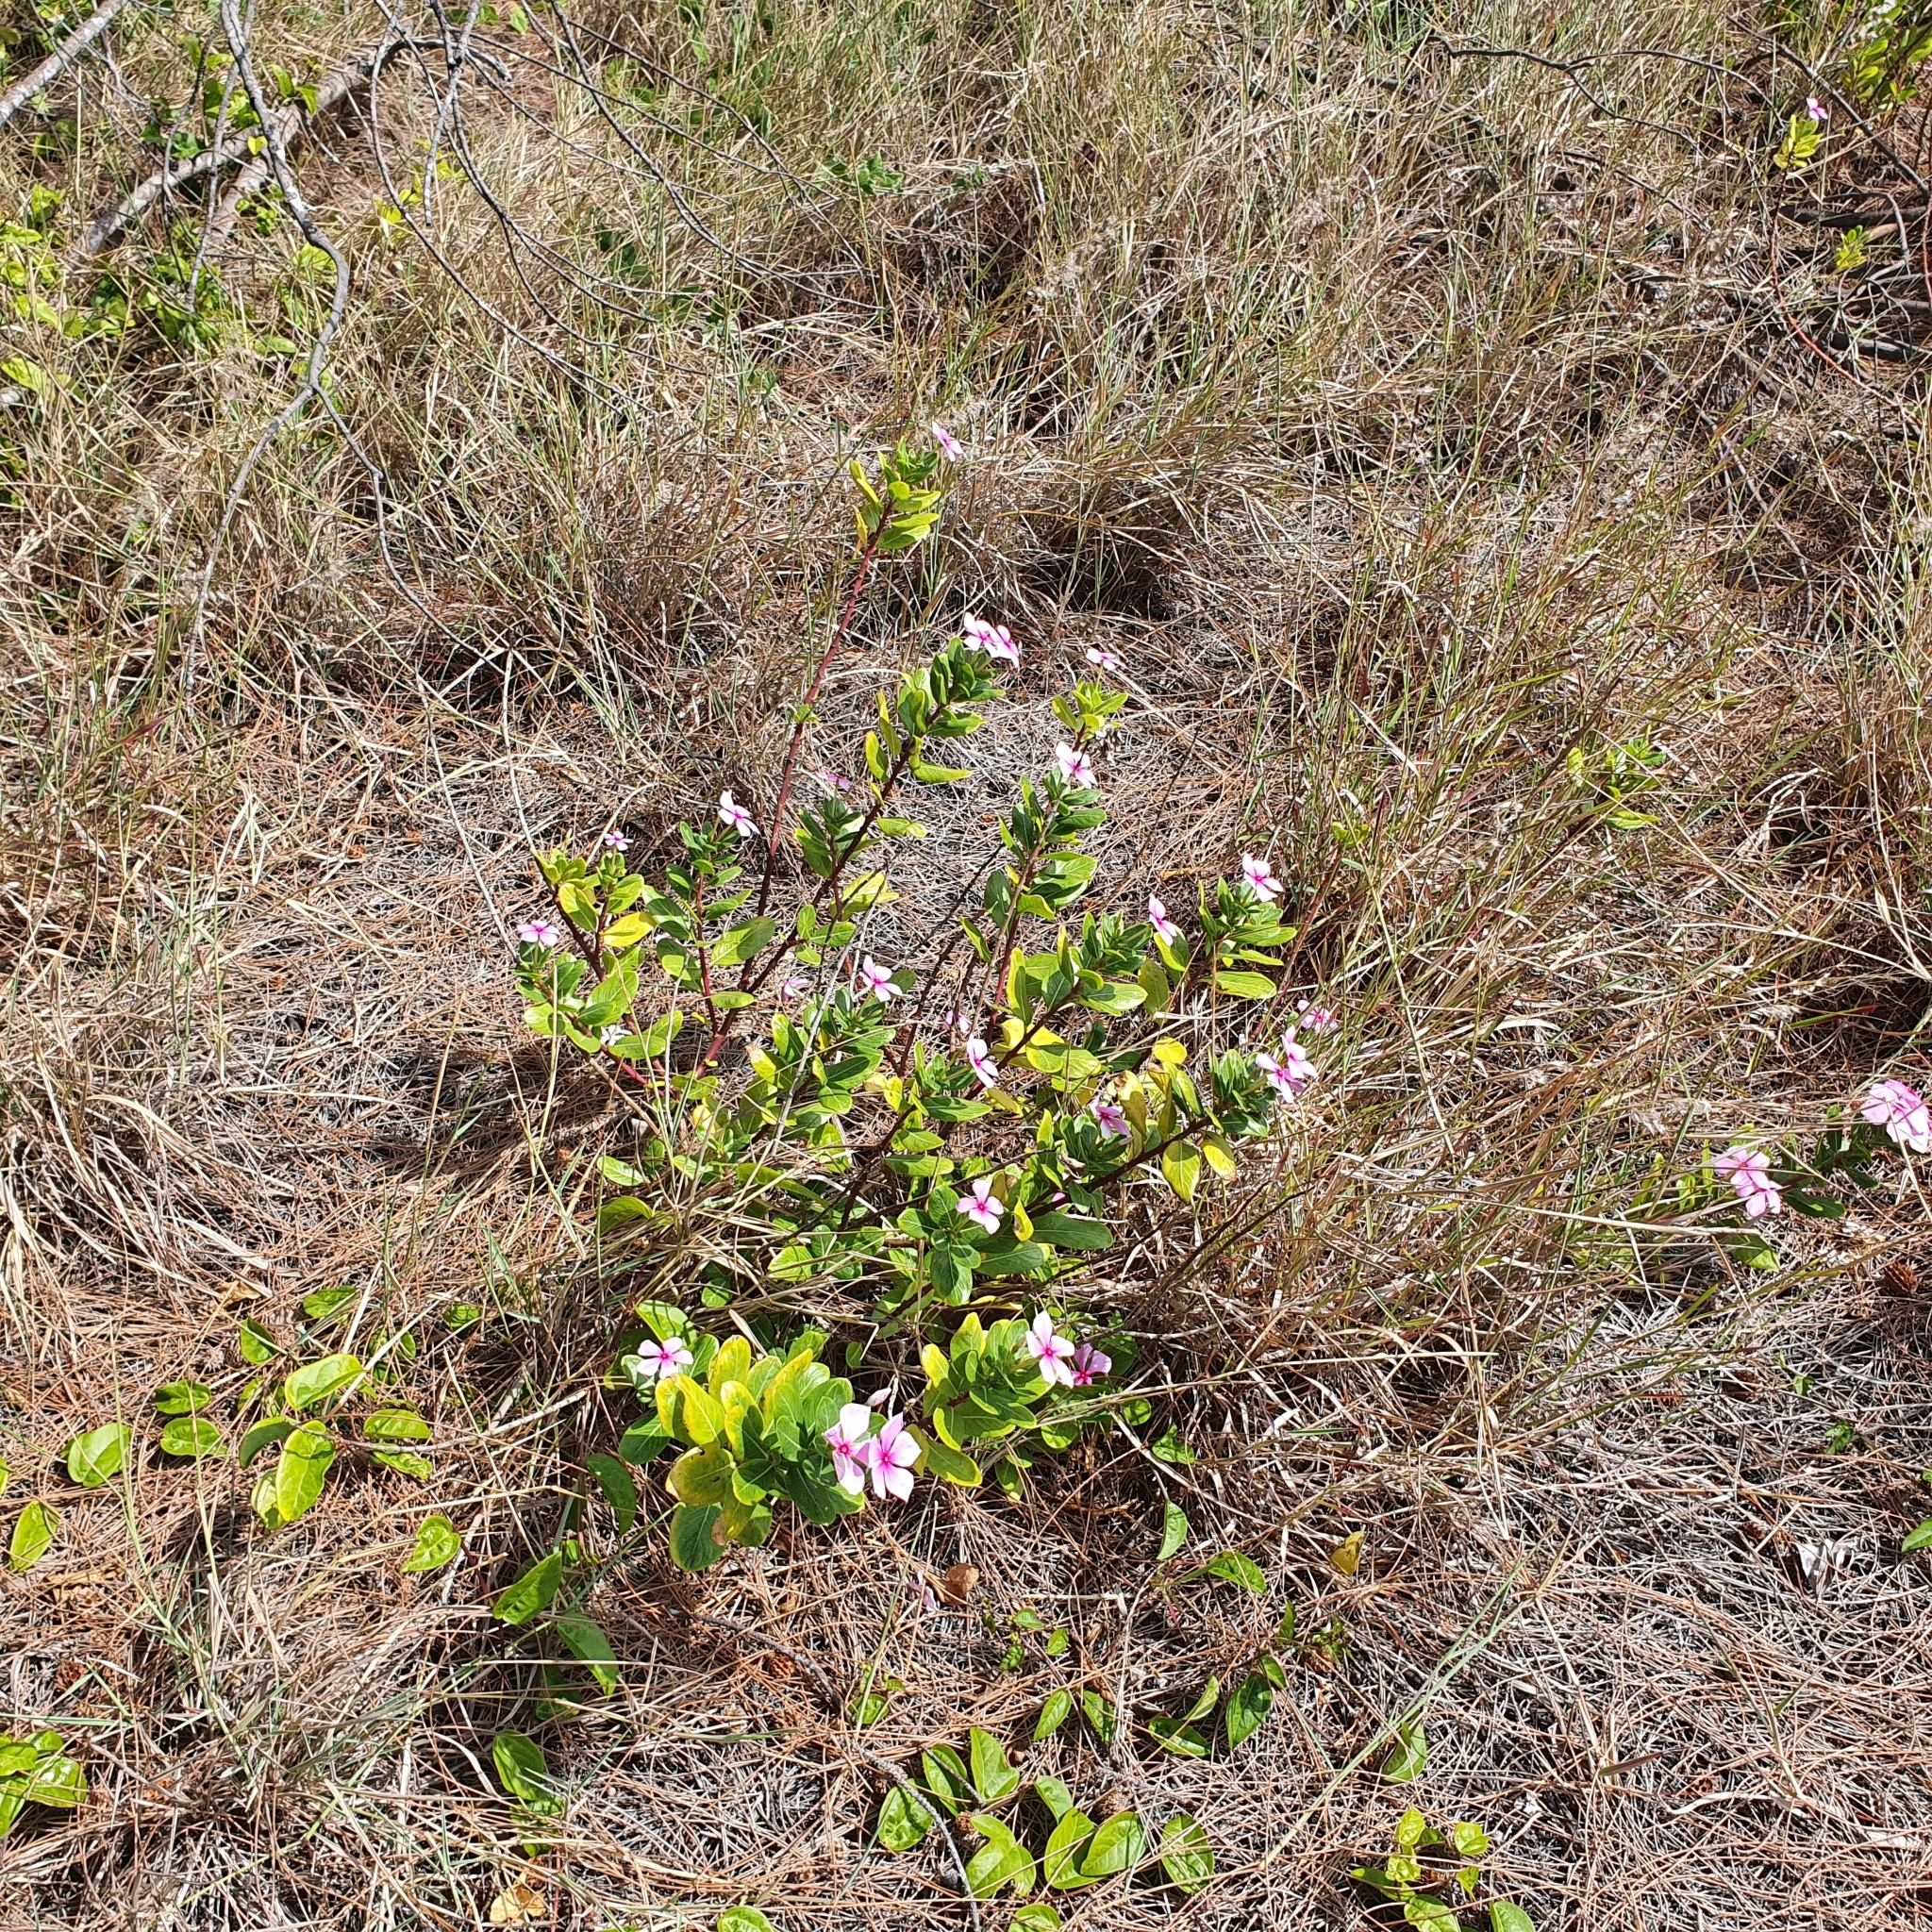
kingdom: Plantae
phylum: Tracheophyta
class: Magnoliopsida
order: Gentianales
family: Apocynaceae
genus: Catharanthus
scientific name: Catharanthus roseus
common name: Madagascar periwinkle
